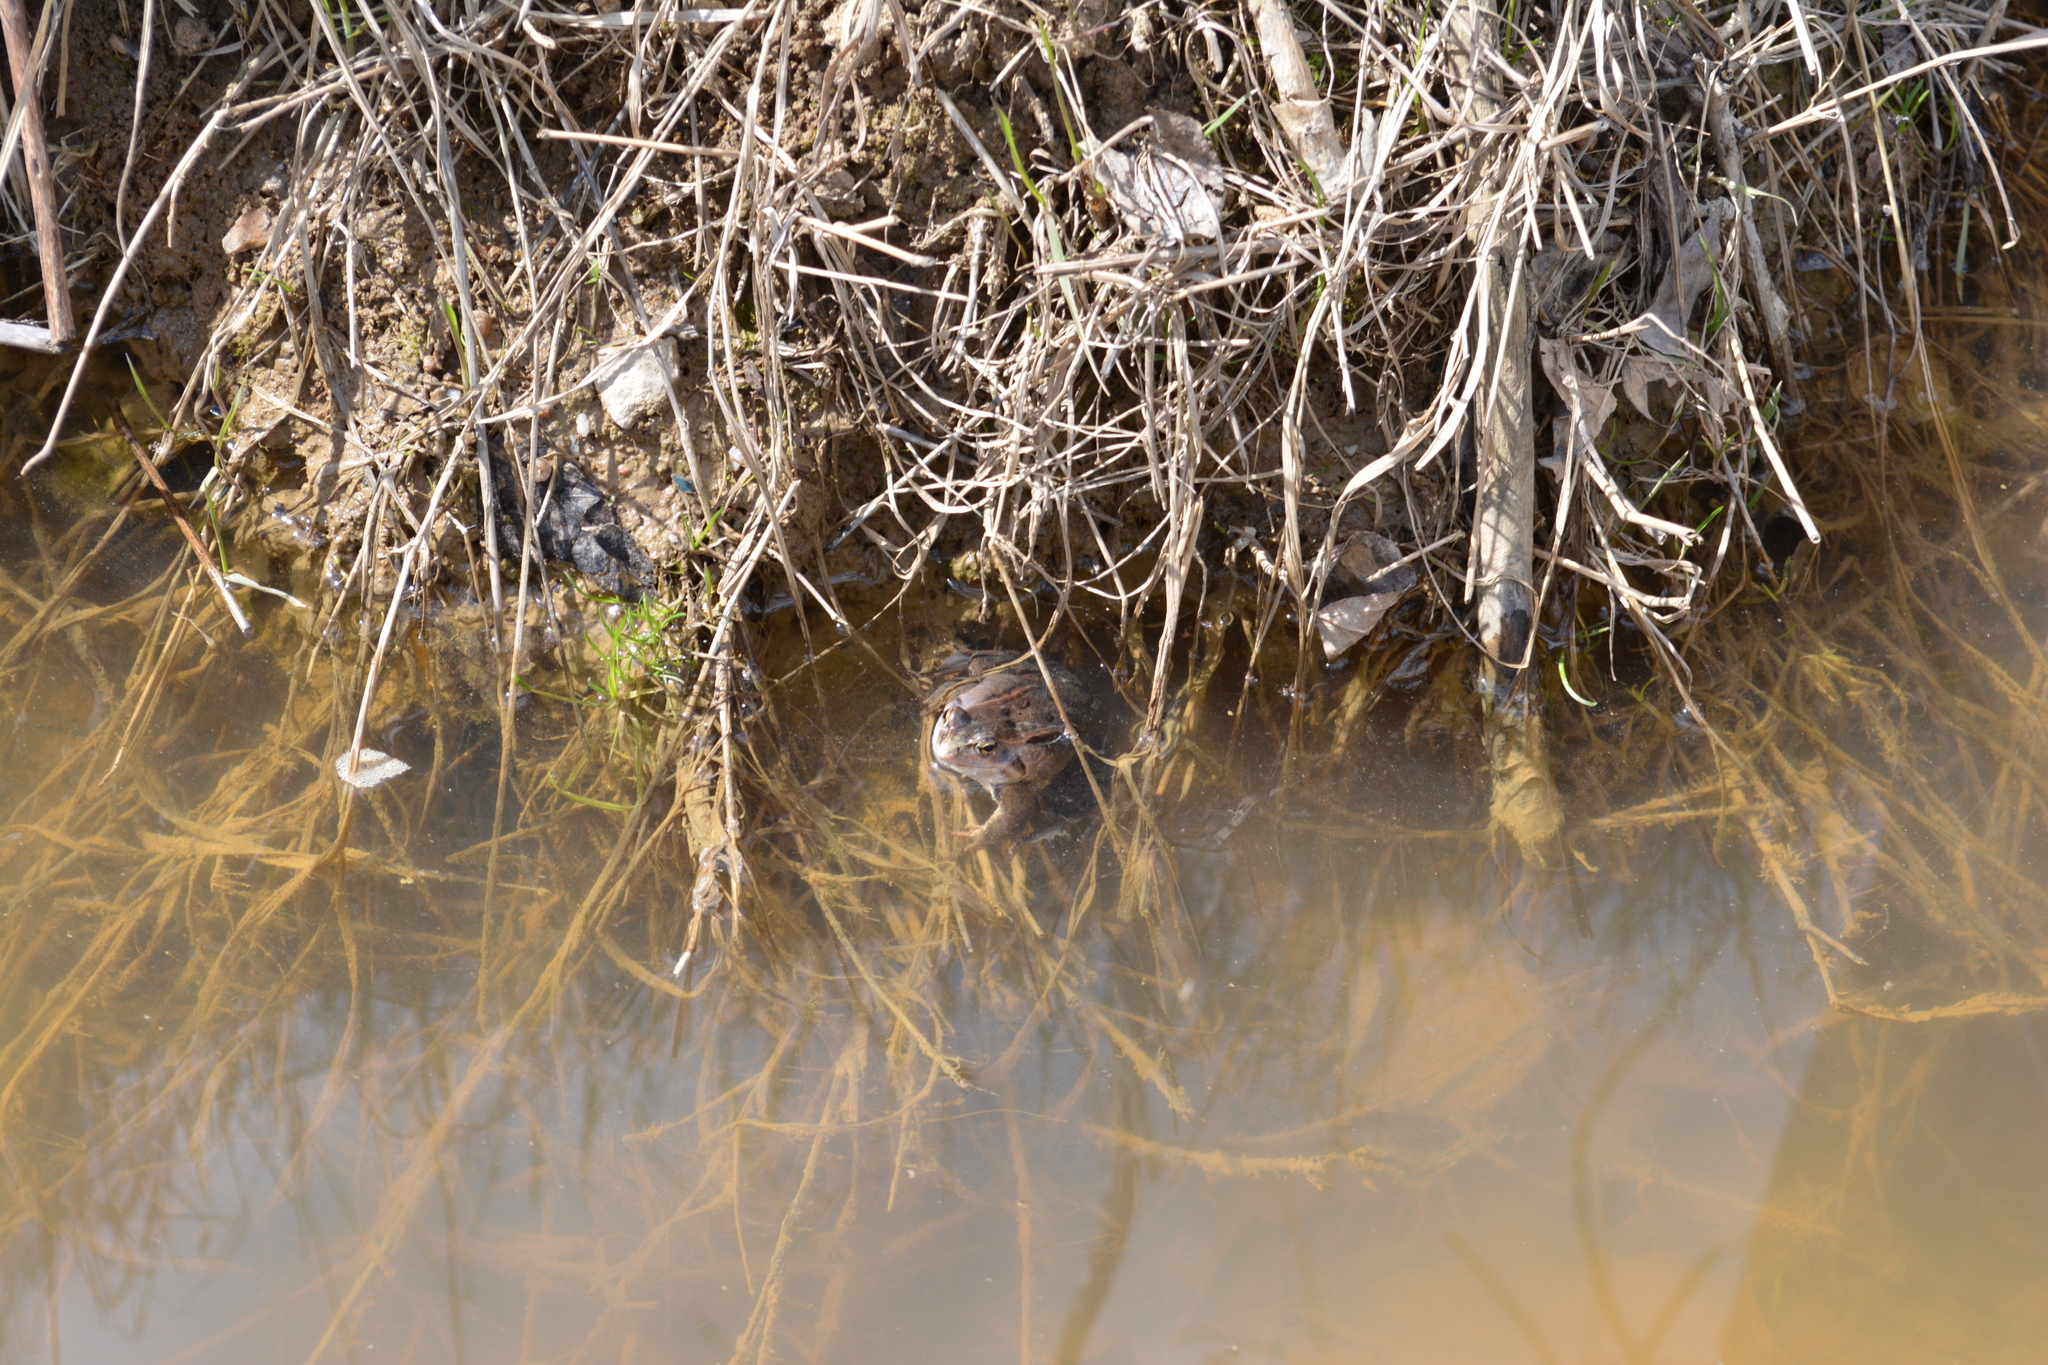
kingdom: Animalia
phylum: Chordata
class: Amphibia
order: Anura
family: Ranidae
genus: Rana
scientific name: Rana arvalis
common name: Moor frog
